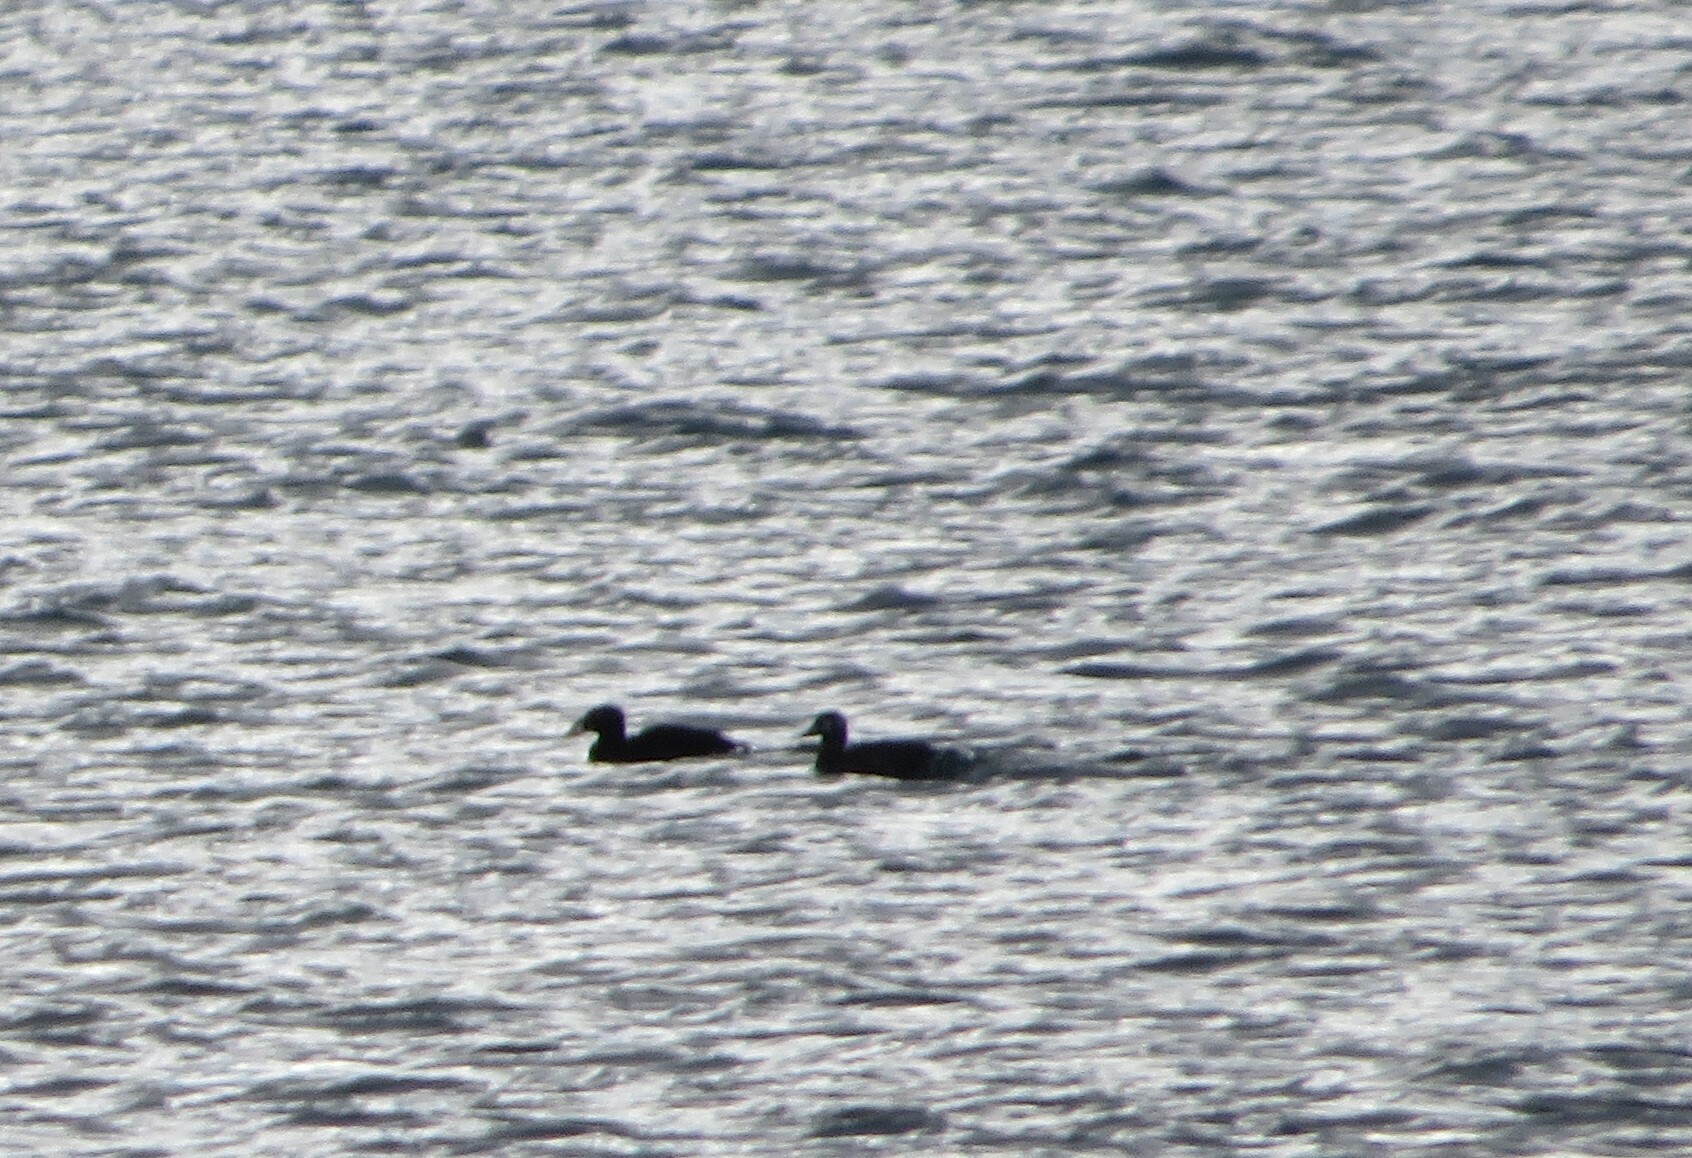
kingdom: Animalia
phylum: Chordata
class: Aves
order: Anseriformes
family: Anatidae
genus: Melanitta
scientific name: Melanitta perspicillata
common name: Surf scoter
